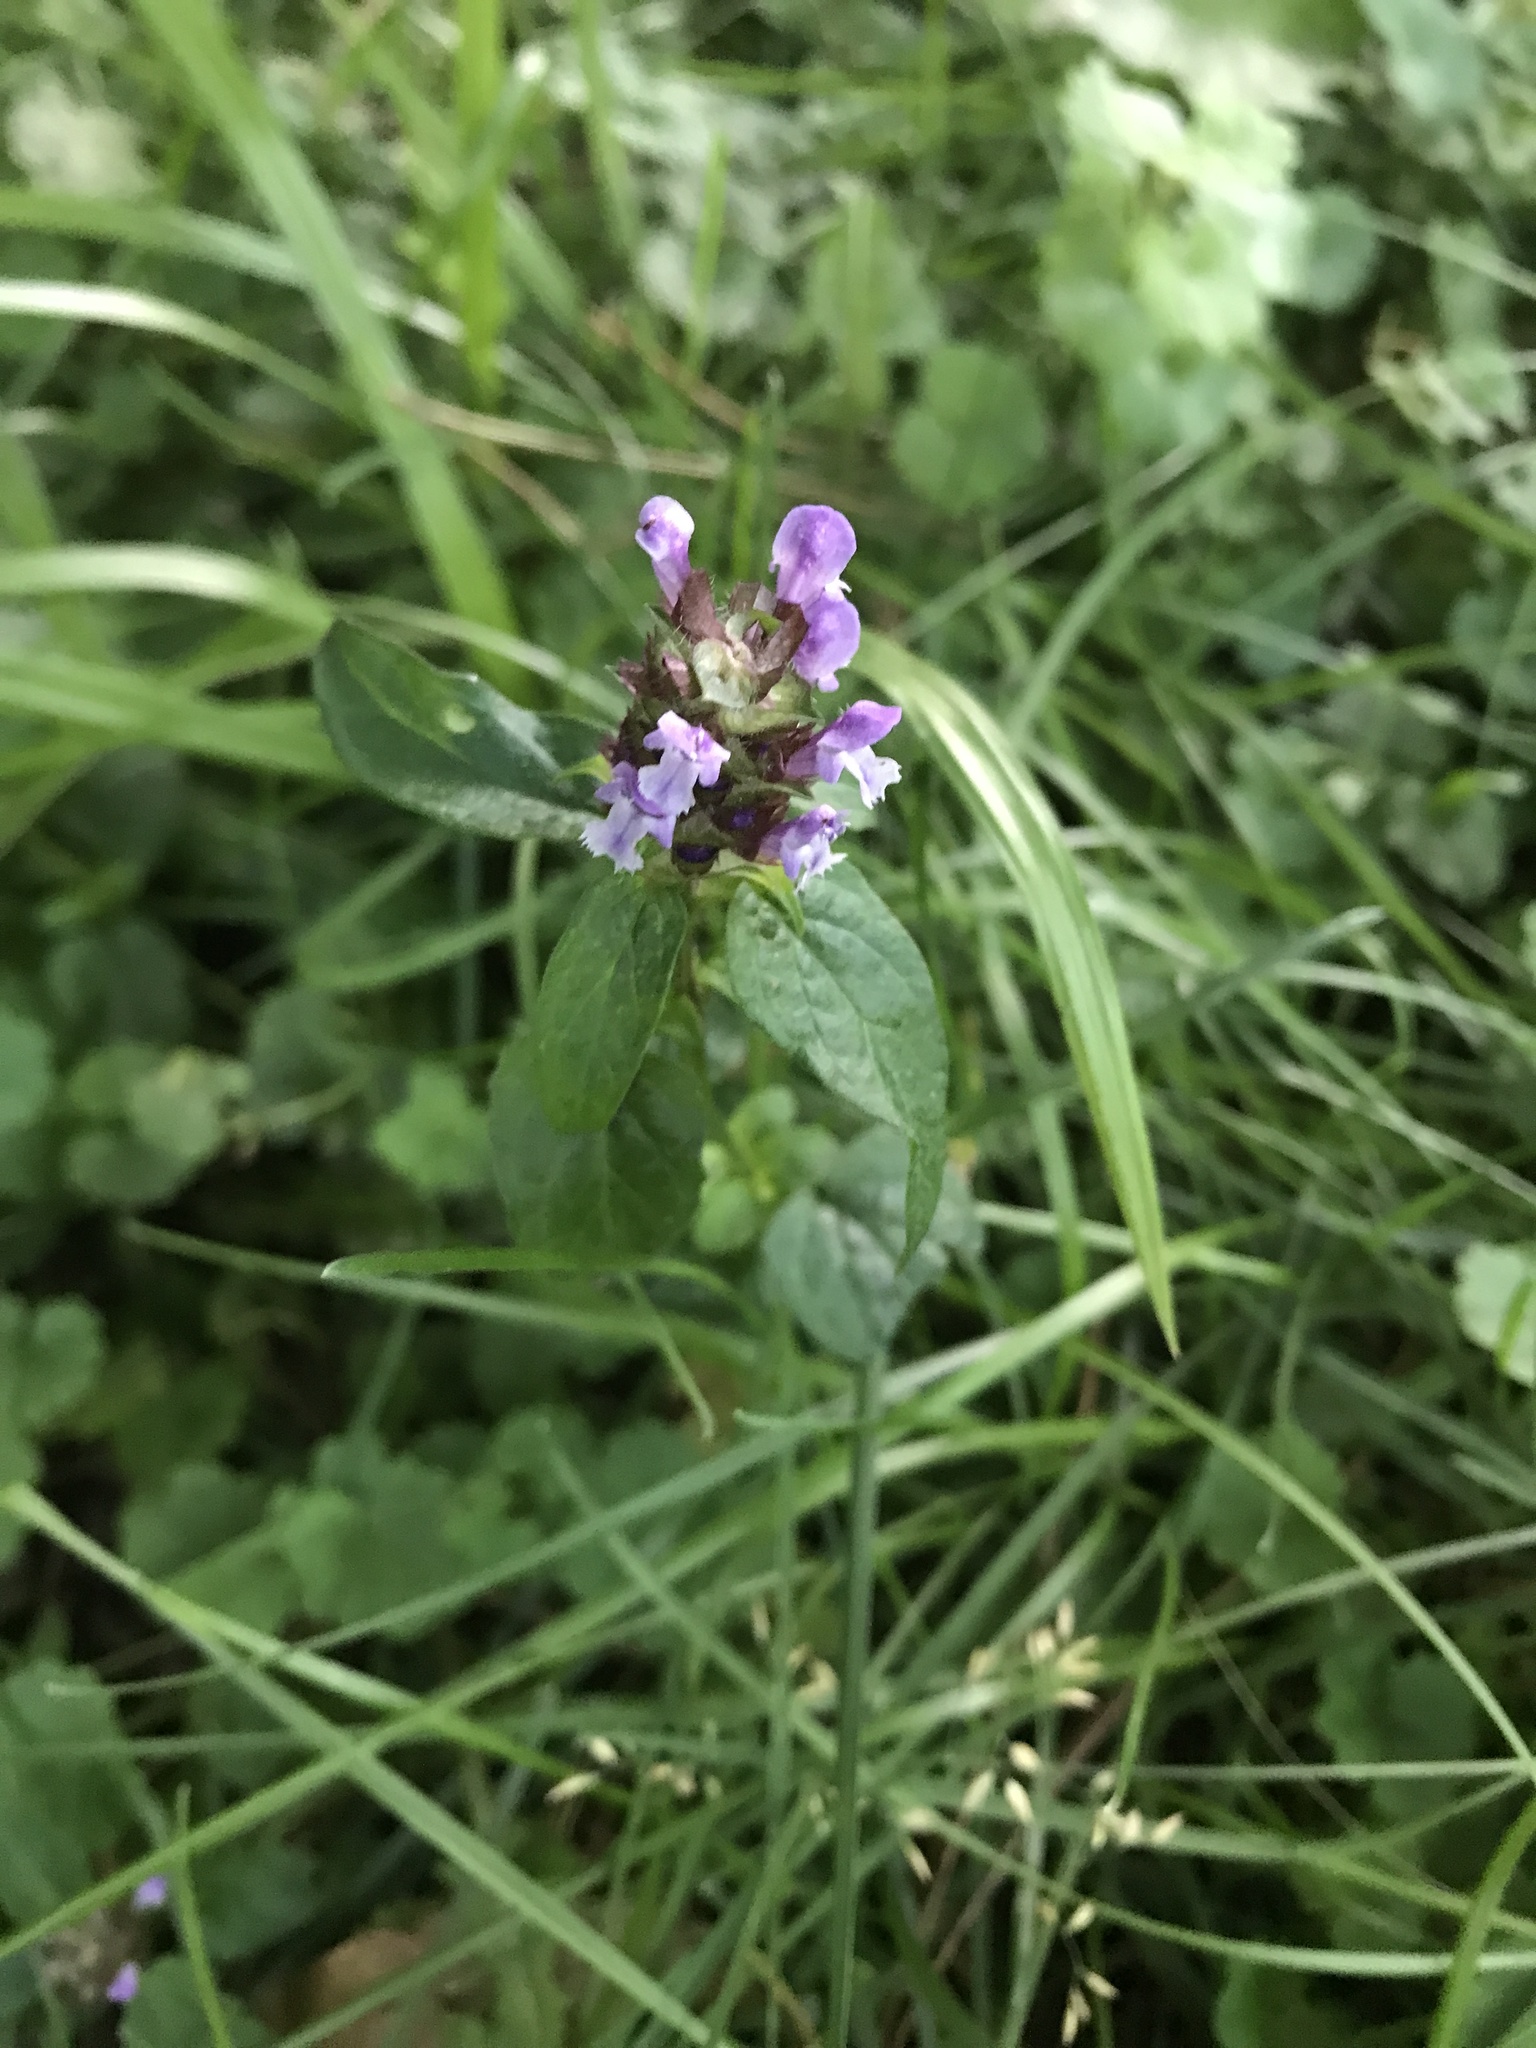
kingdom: Plantae
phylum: Tracheophyta
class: Magnoliopsida
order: Lamiales
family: Lamiaceae
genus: Prunella
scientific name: Prunella vulgaris
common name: Heal-all
